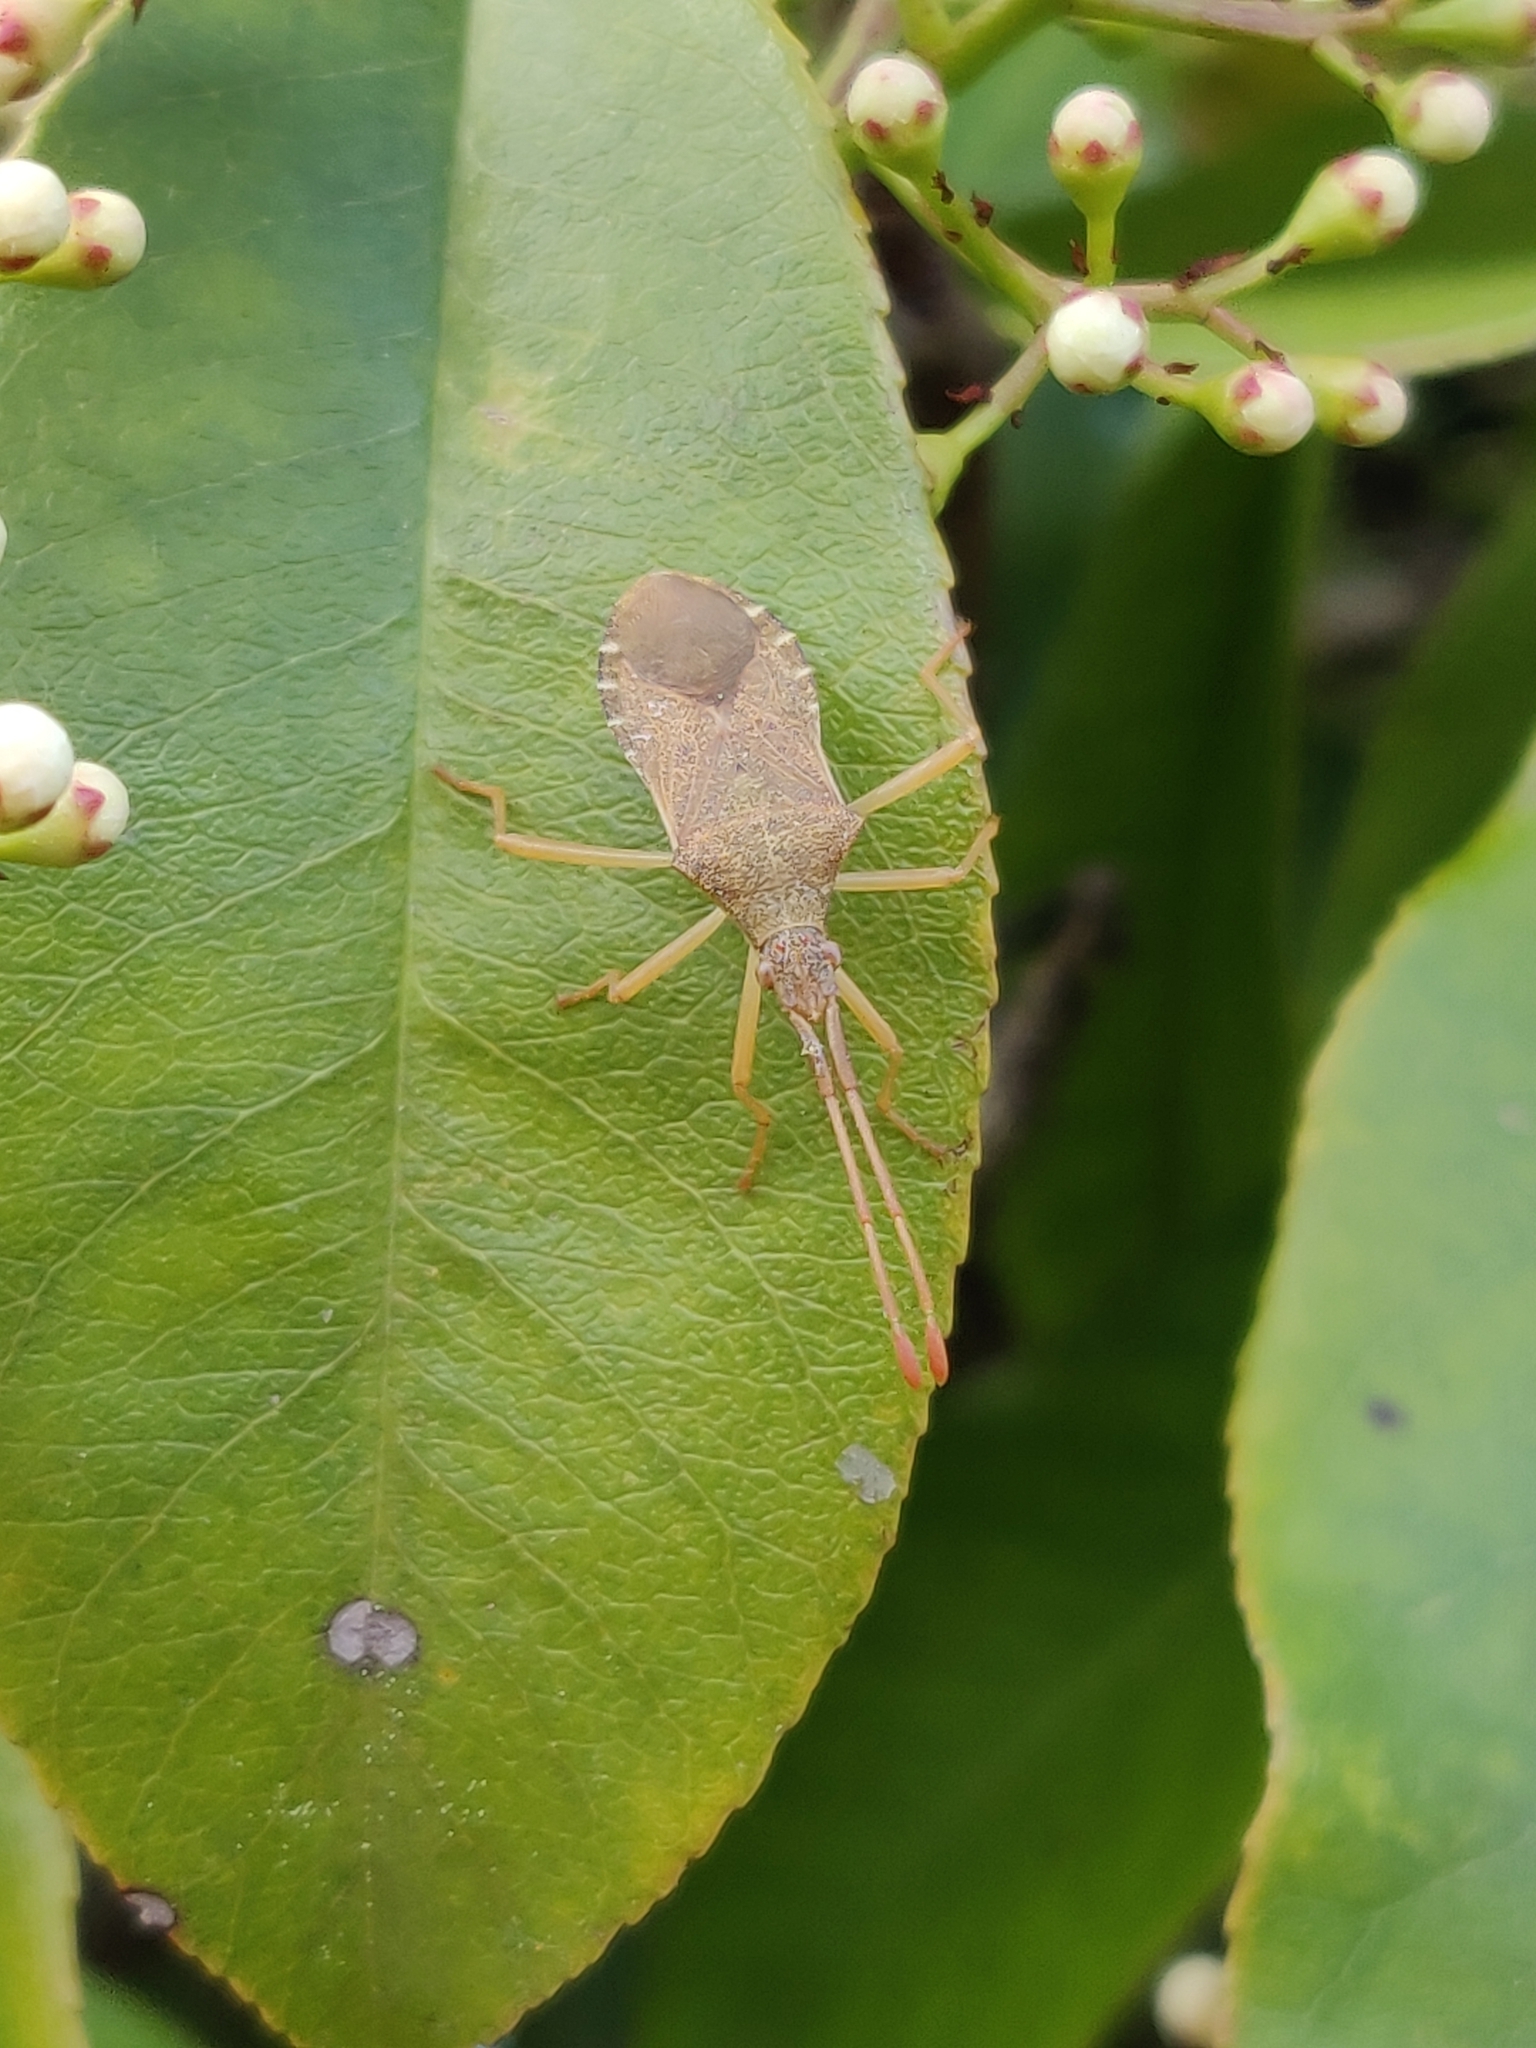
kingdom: Animalia
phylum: Arthropoda
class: Insecta
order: Hemiptera
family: Coreidae
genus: Gonocerus
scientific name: Gonocerus acuteangulatus
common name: Box bug
